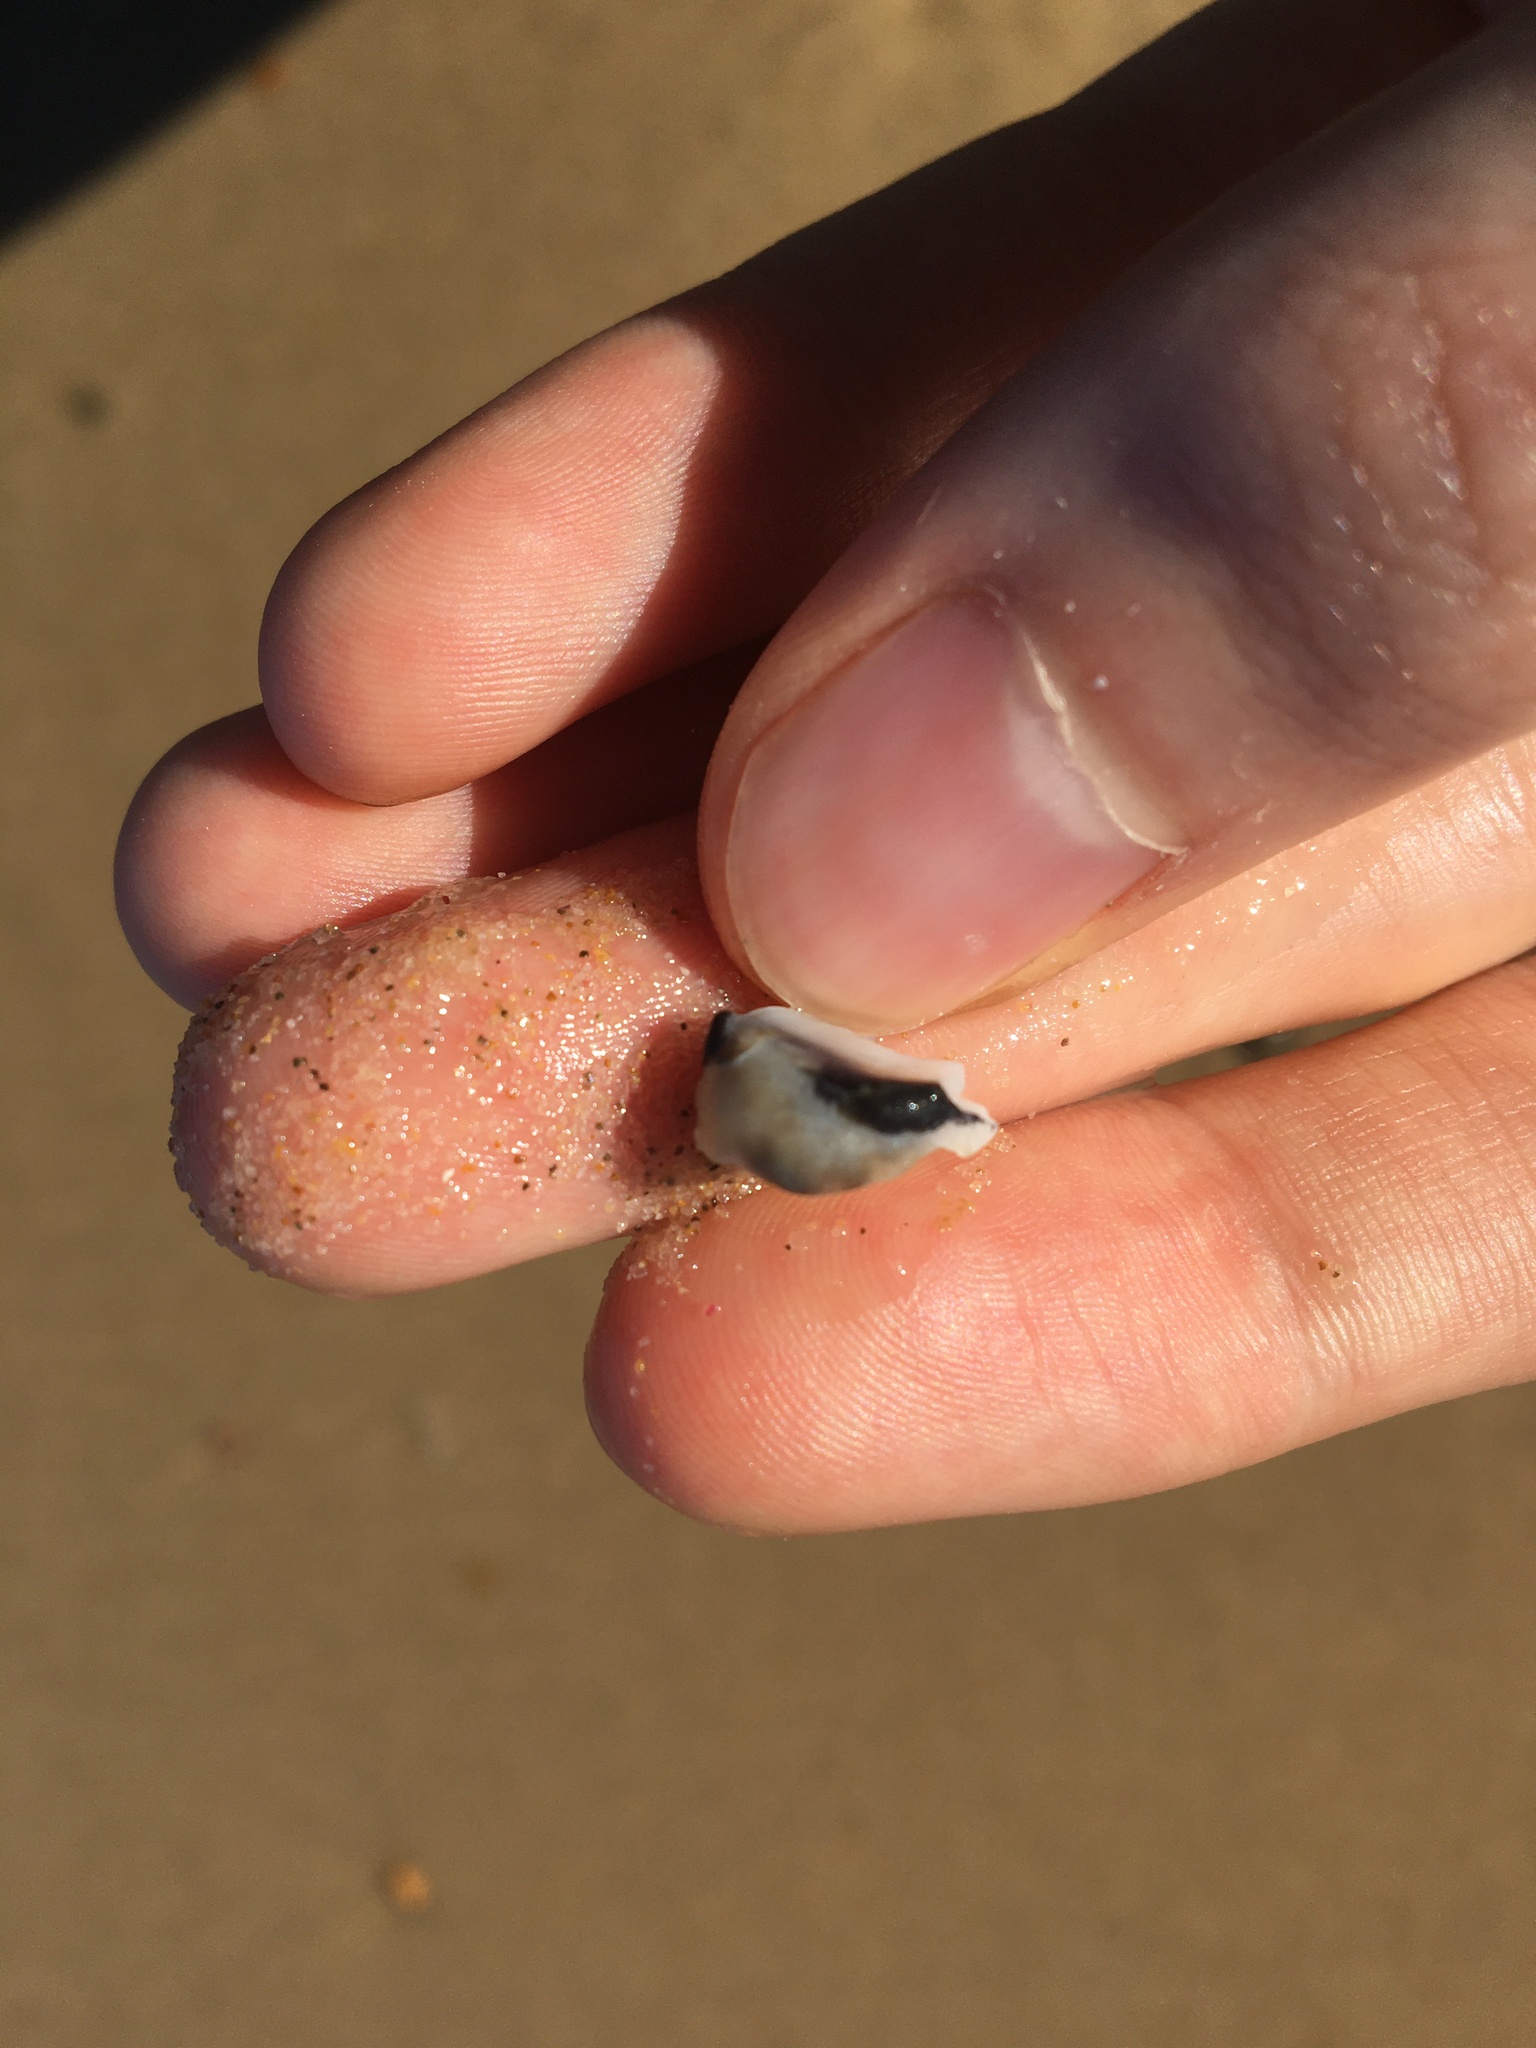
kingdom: Animalia
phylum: Mollusca
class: Gastropoda
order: Cycloneritida
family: Neritidae
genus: Nerita
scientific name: Nerita melanotragus
